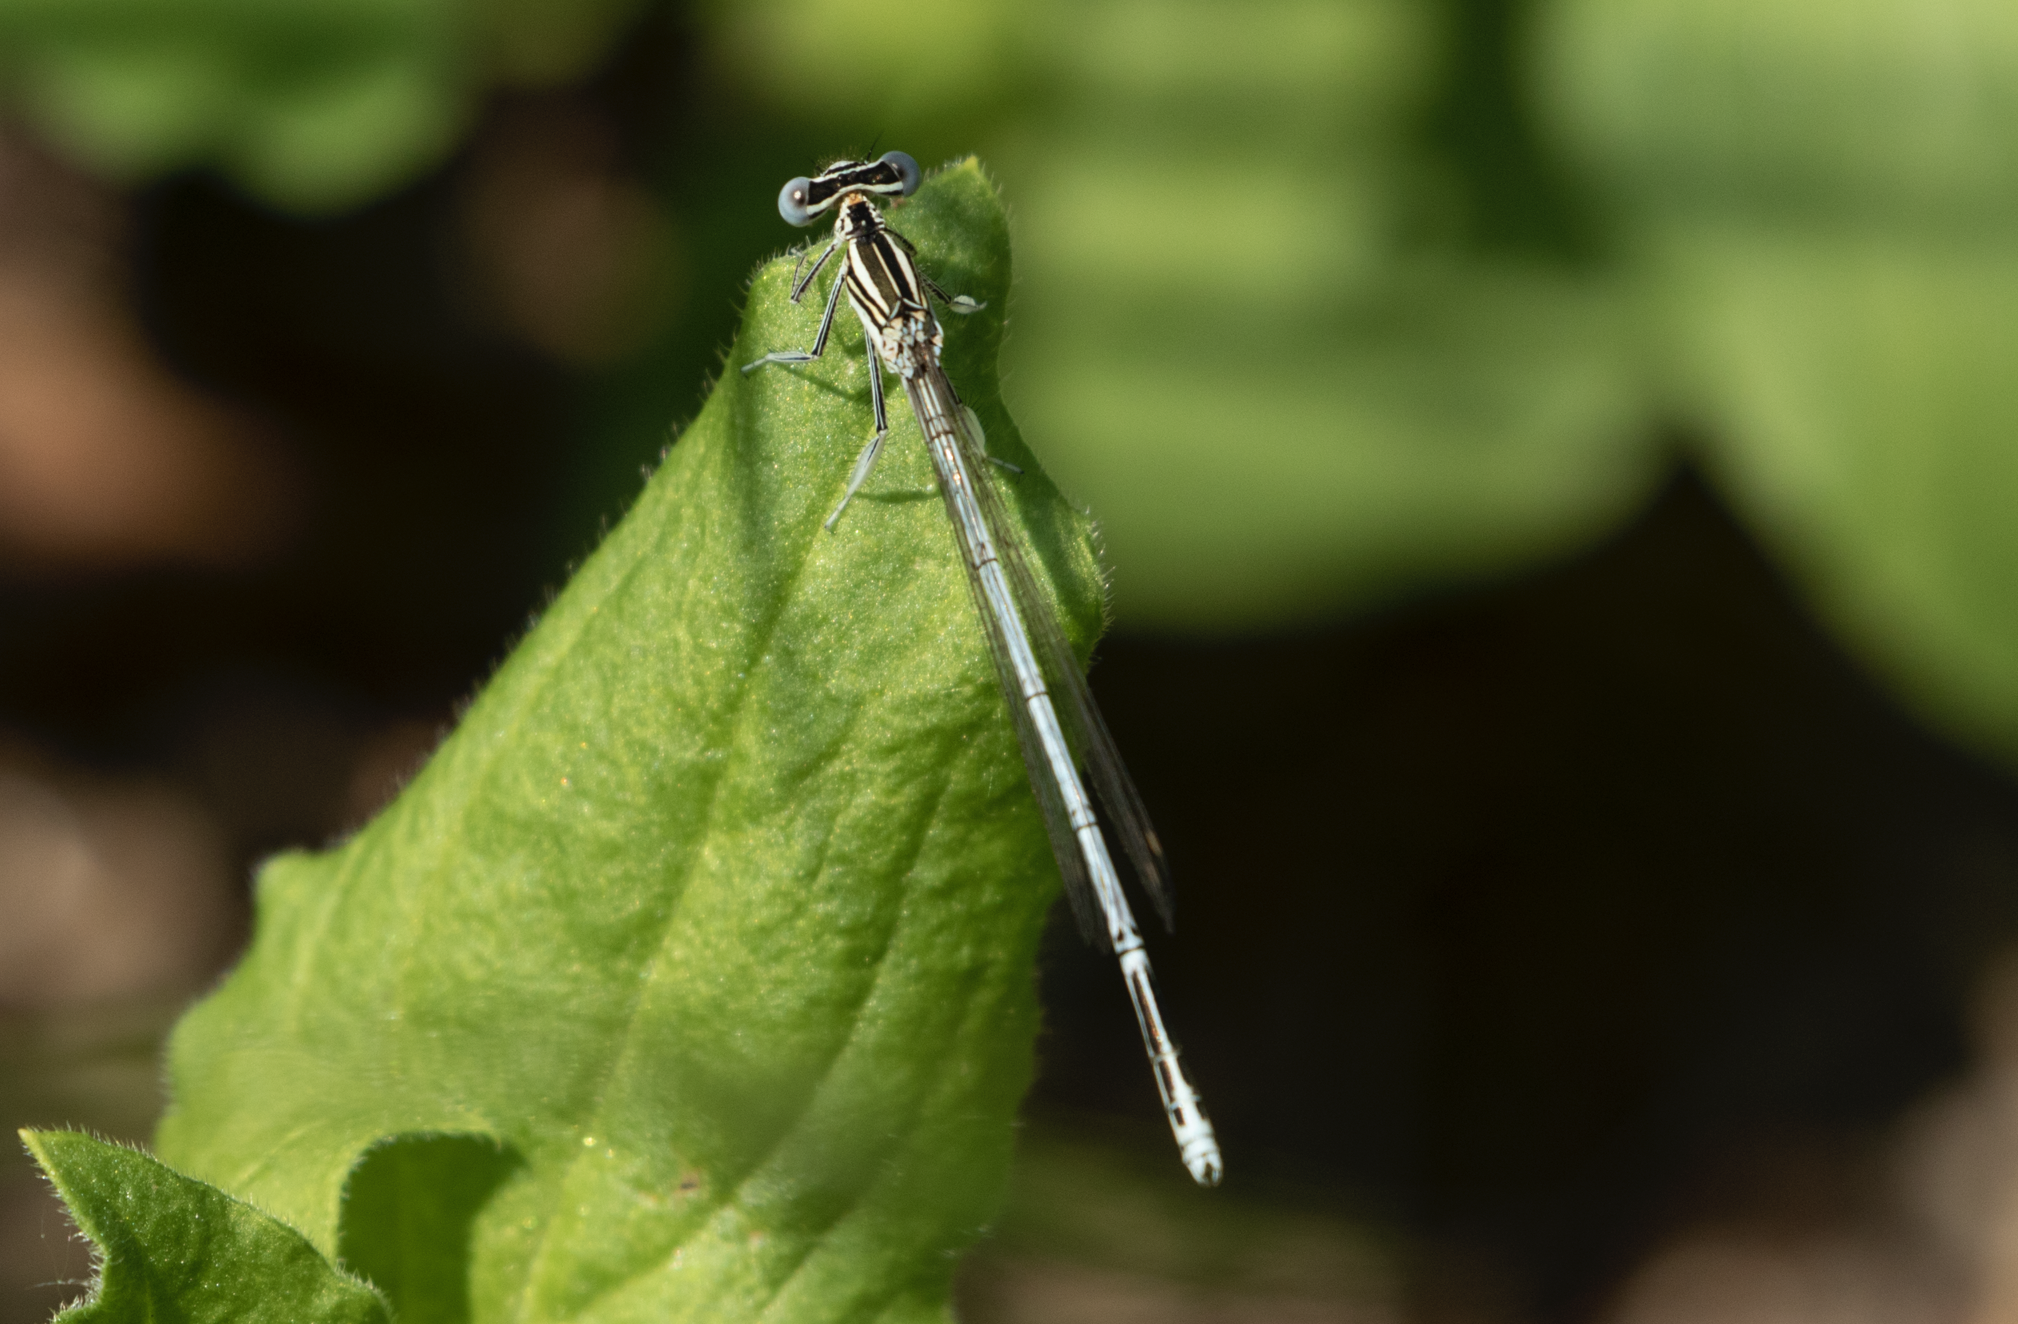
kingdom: Animalia
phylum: Arthropoda
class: Insecta
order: Odonata
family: Platycnemididae
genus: Platycnemis
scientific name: Platycnemis pennipes
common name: White-legged damselfly
